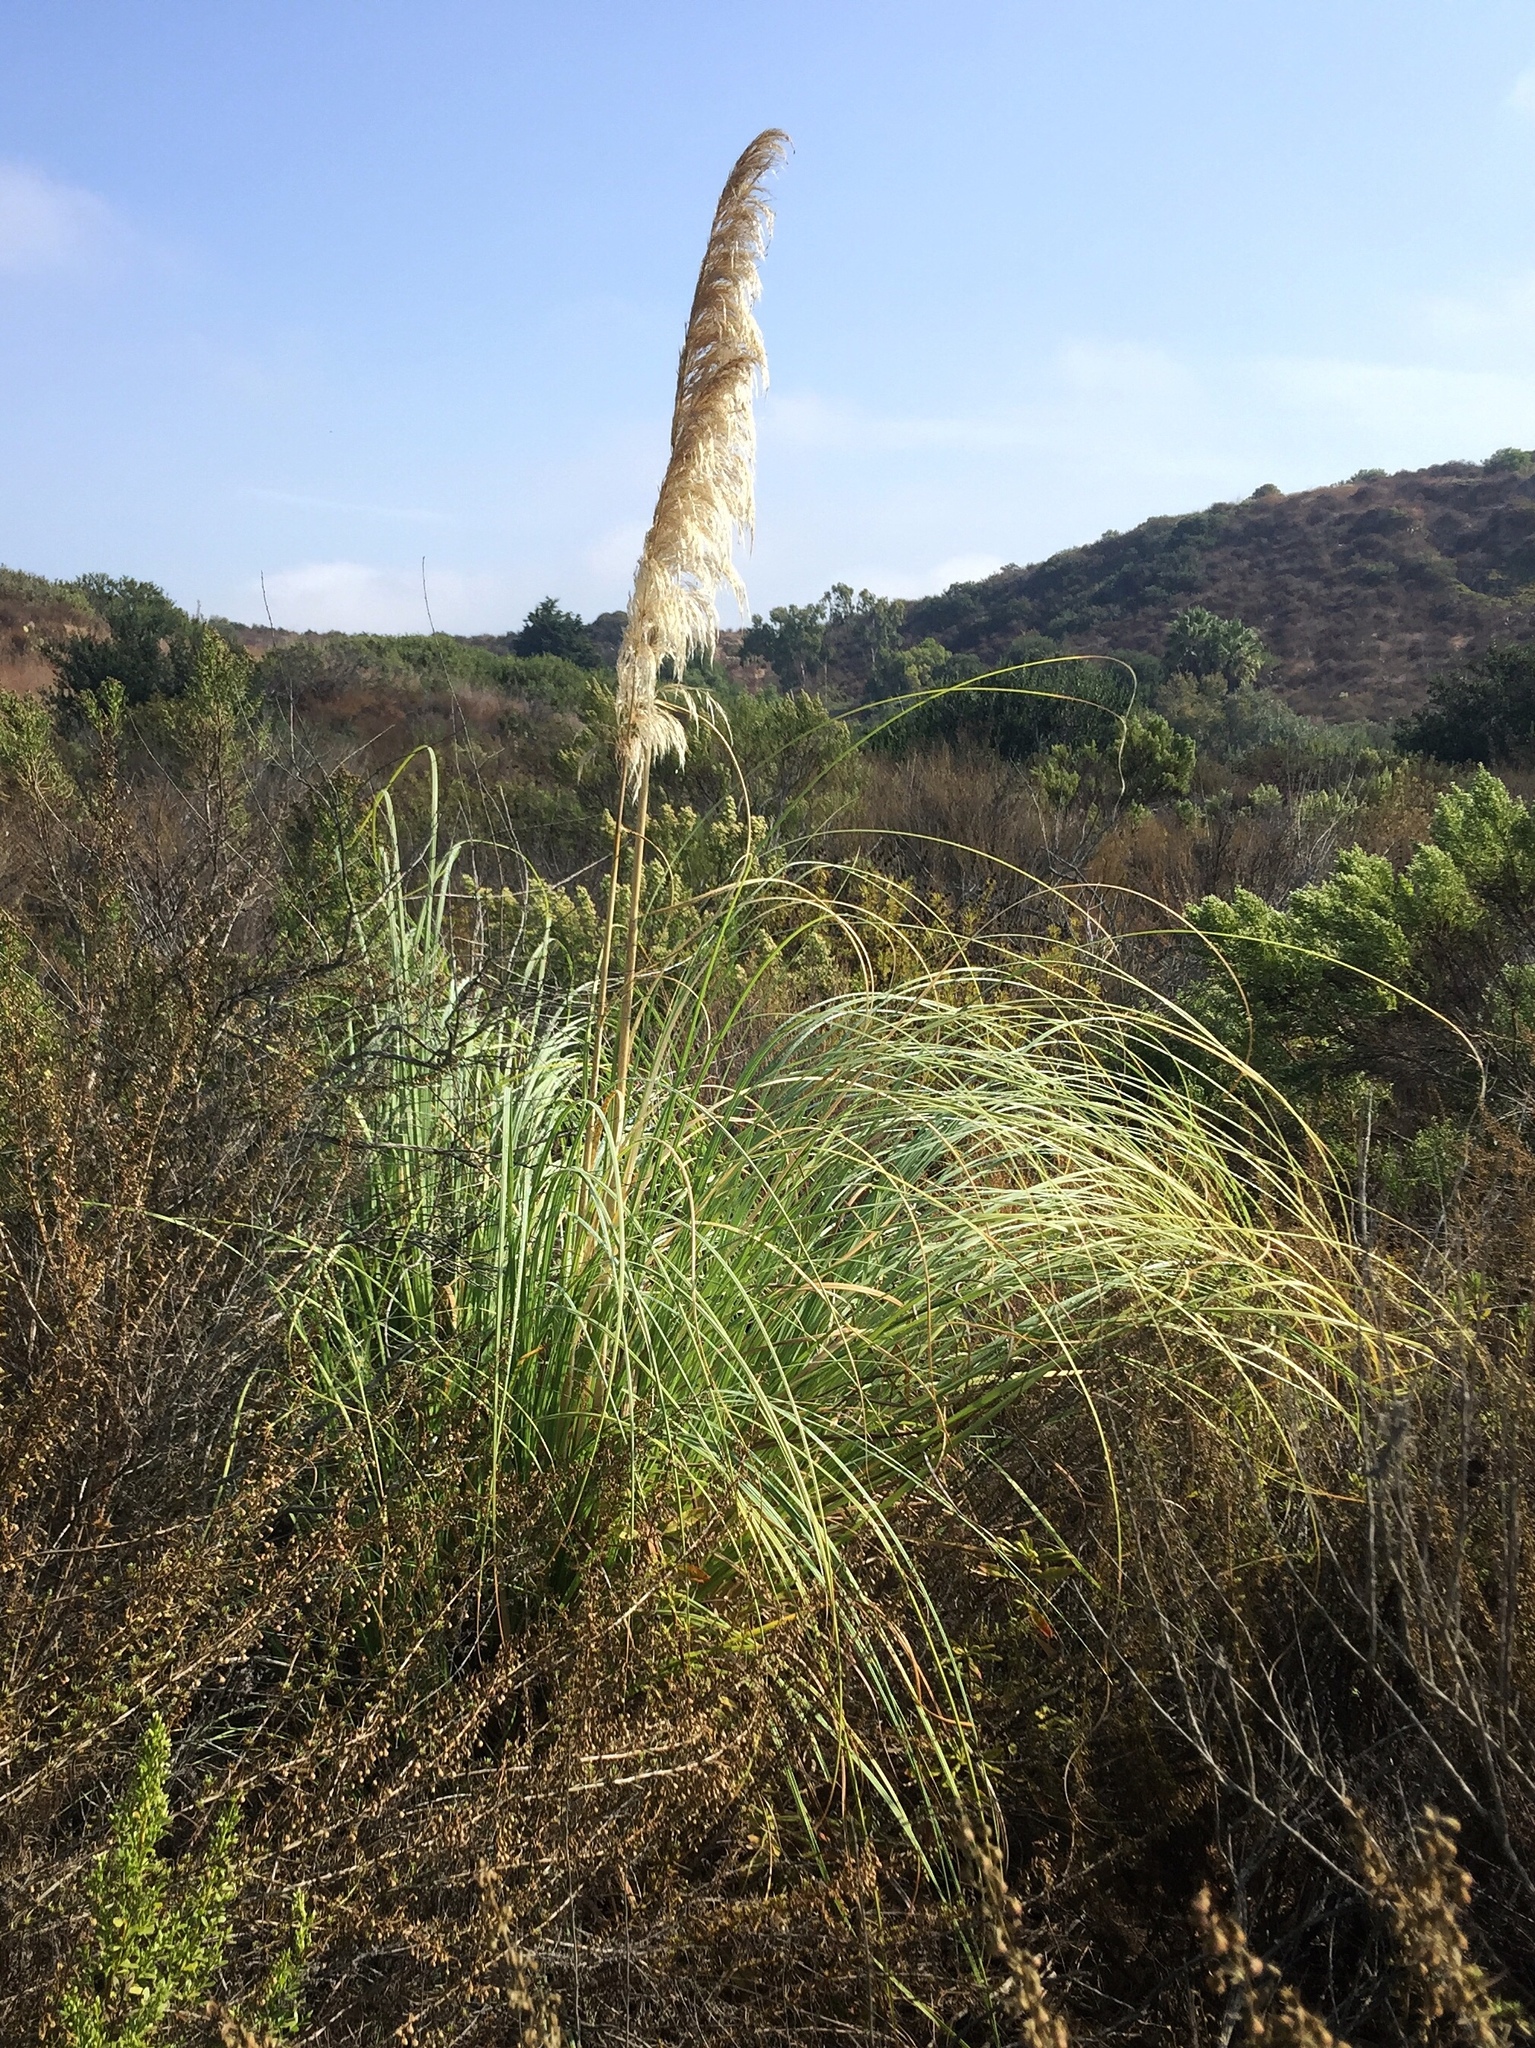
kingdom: Plantae
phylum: Tracheophyta
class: Liliopsida
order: Poales
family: Poaceae
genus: Cortaderia
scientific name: Cortaderia selloana
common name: Uruguayan pampas grass
